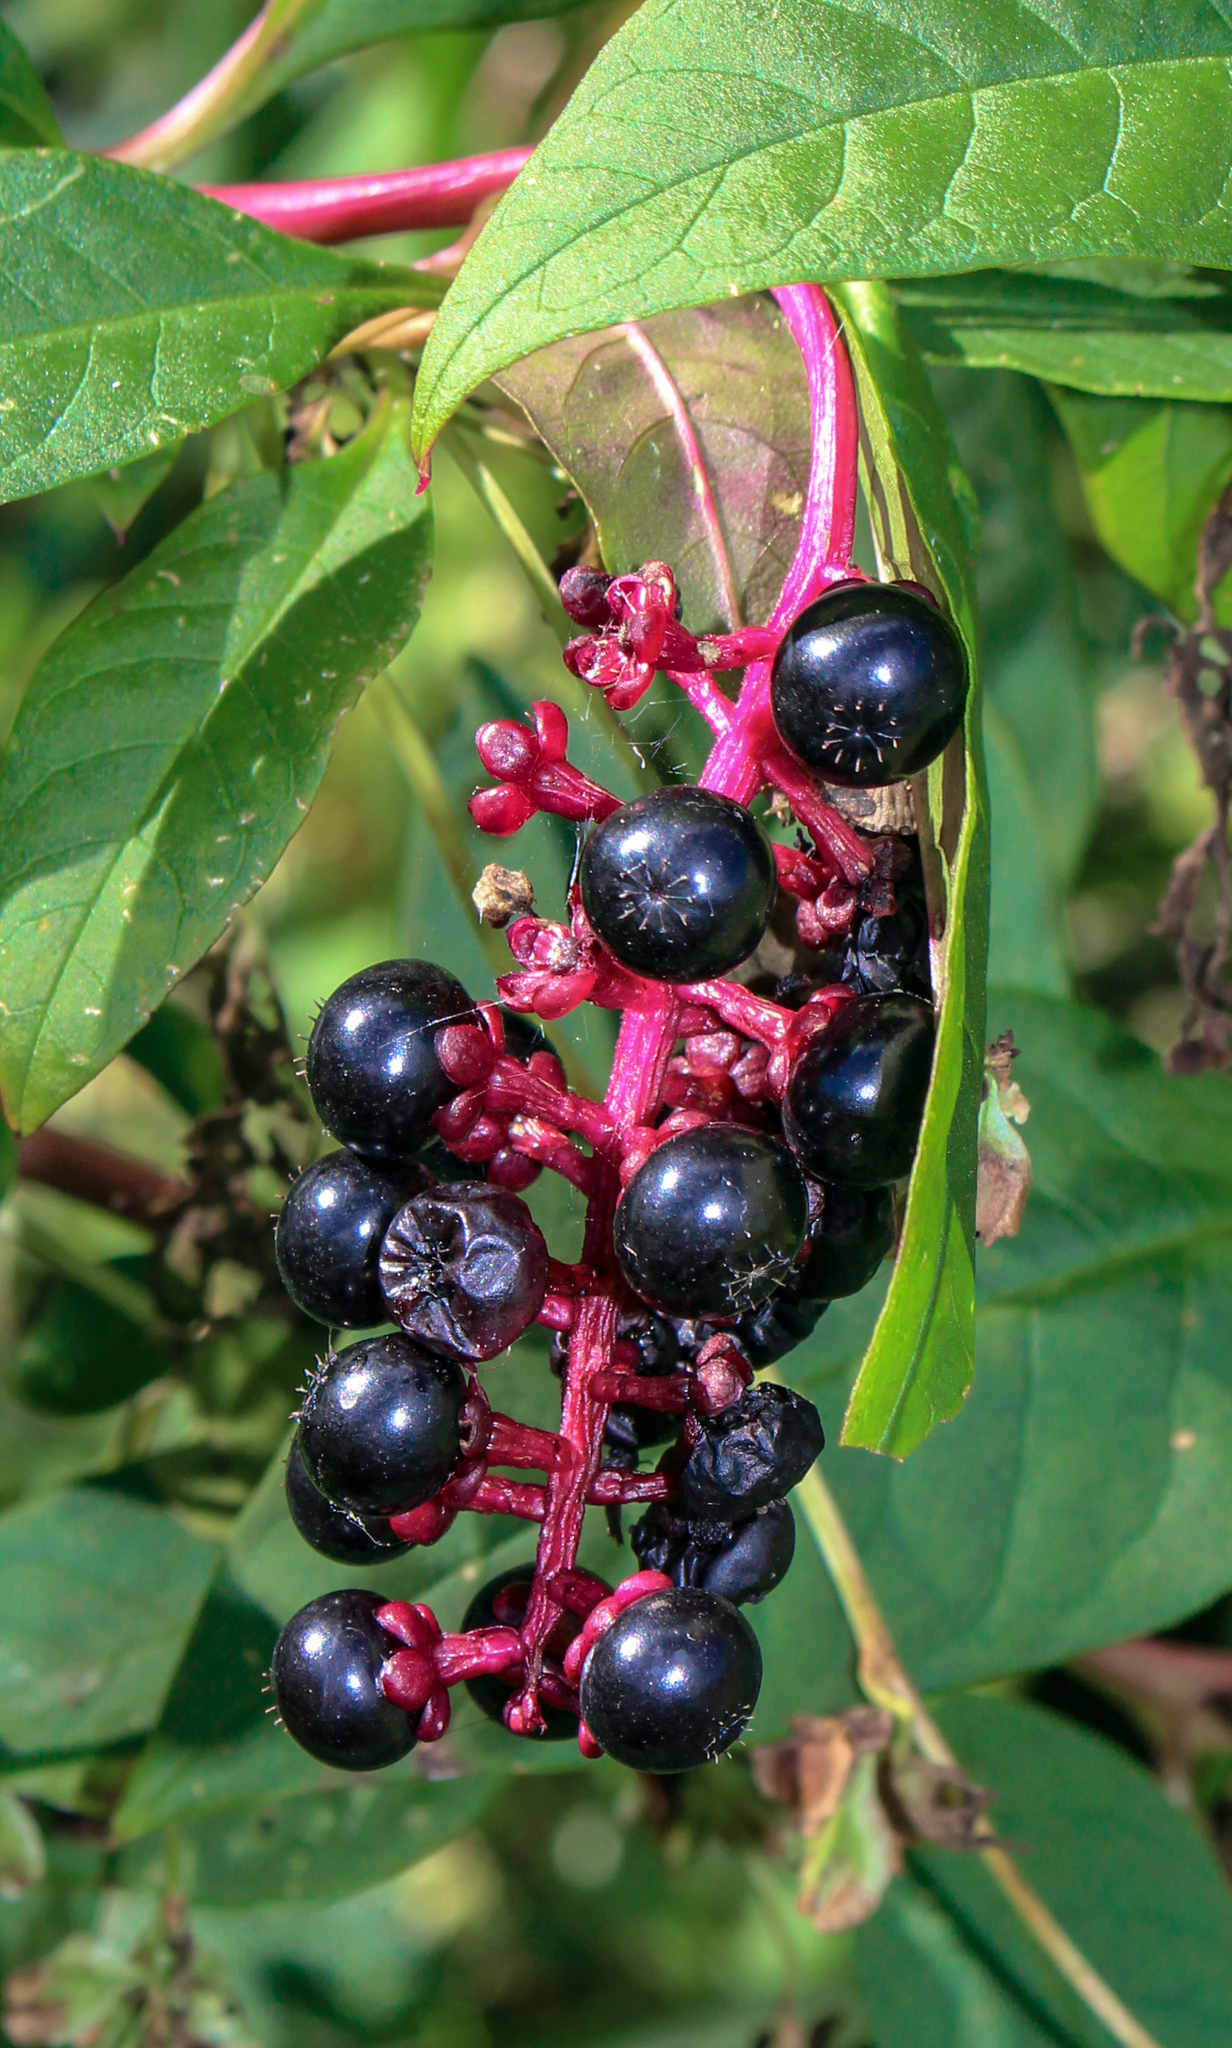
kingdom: Plantae
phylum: Tracheophyta
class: Magnoliopsida
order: Caryophyllales
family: Phytolaccaceae
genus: Phytolacca
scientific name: Phytolacca americana
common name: American pokeweed
